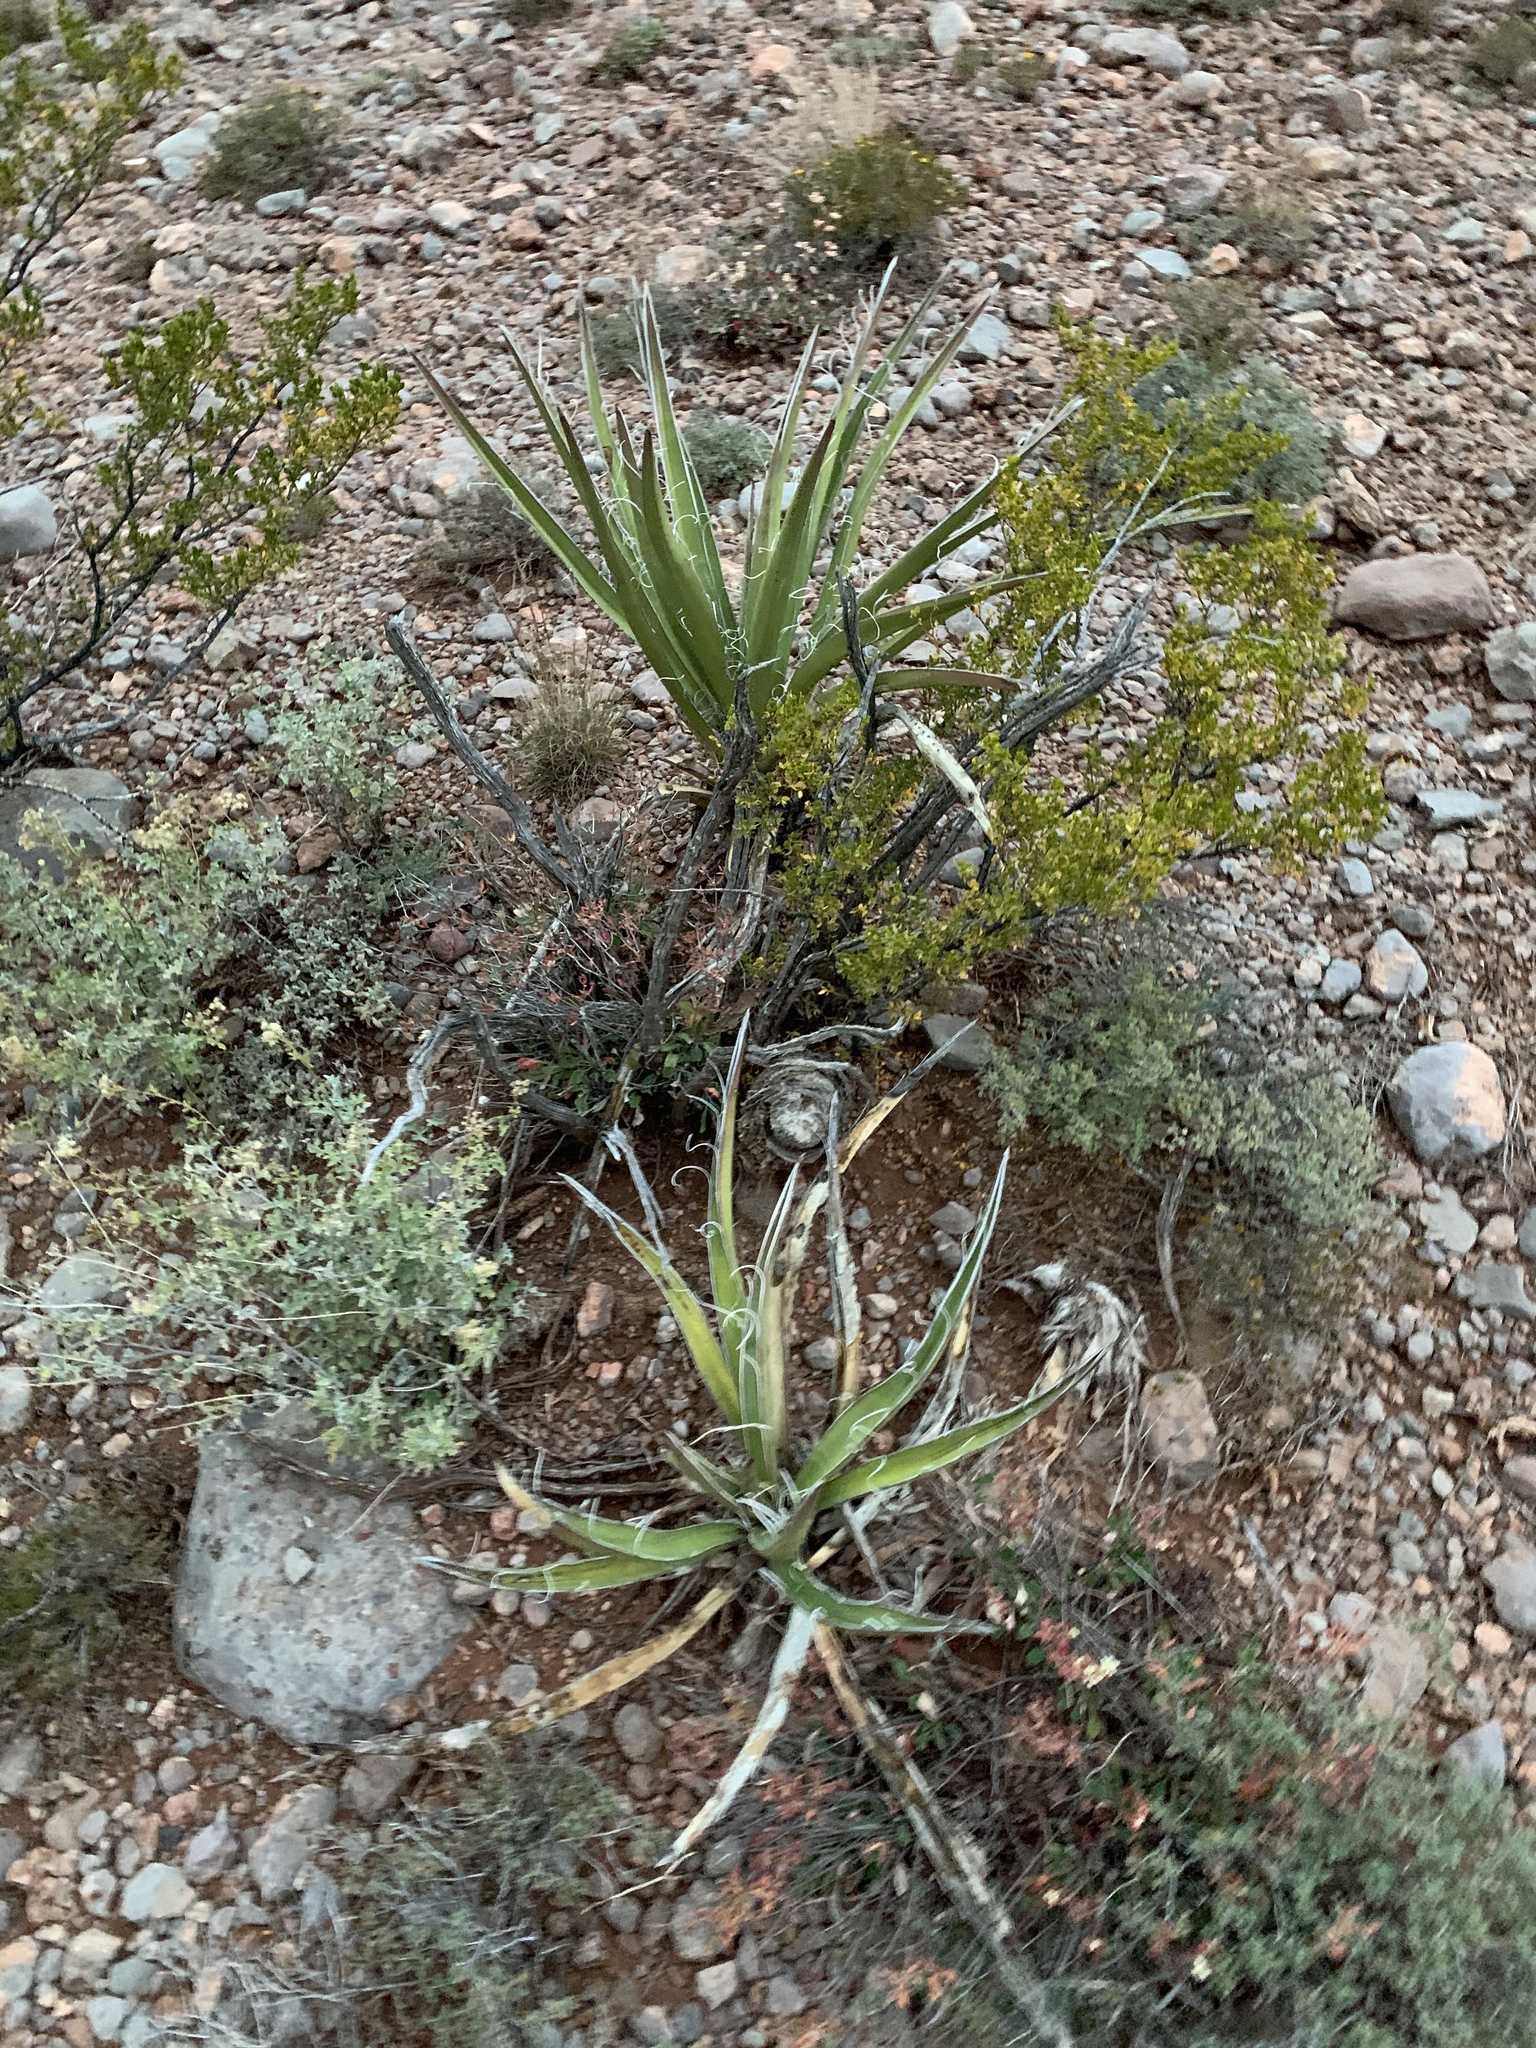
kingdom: Plantae
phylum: Tracheophyta
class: Liliopsida
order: Asparagales
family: Asparagaceae
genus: Yucca
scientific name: Yucca baccata
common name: Banana yucca
